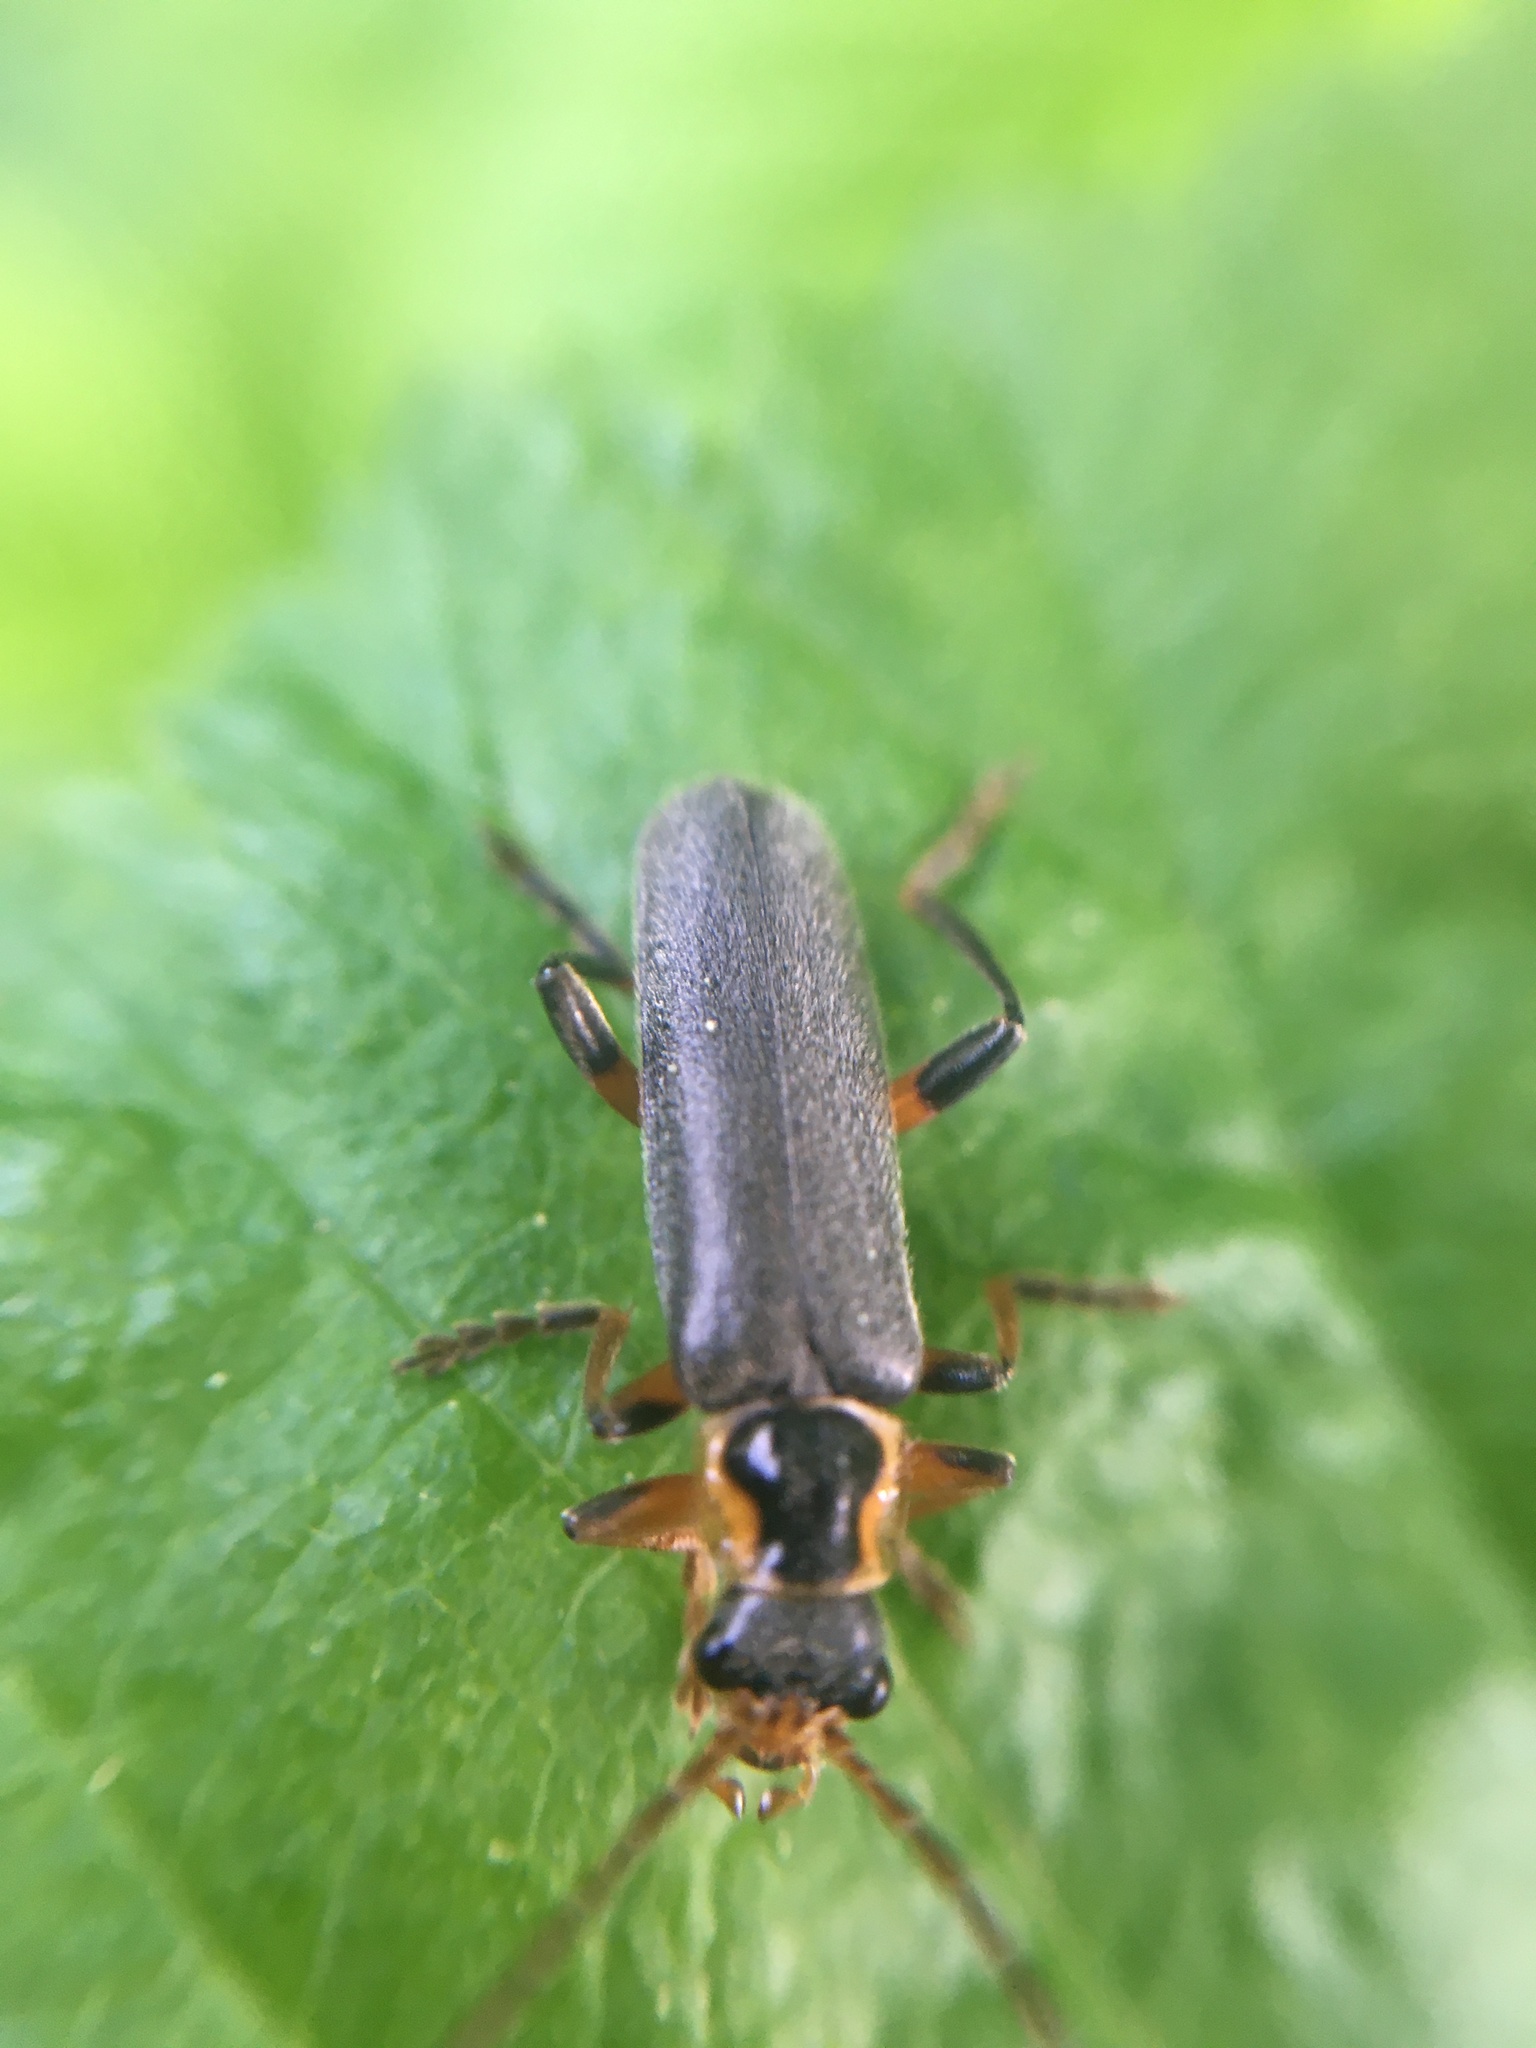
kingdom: Animalia
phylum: Arthropoda
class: Insecta
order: Coleoptera
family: Cantharidae
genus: Cantharis
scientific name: Cantharis nigricans
